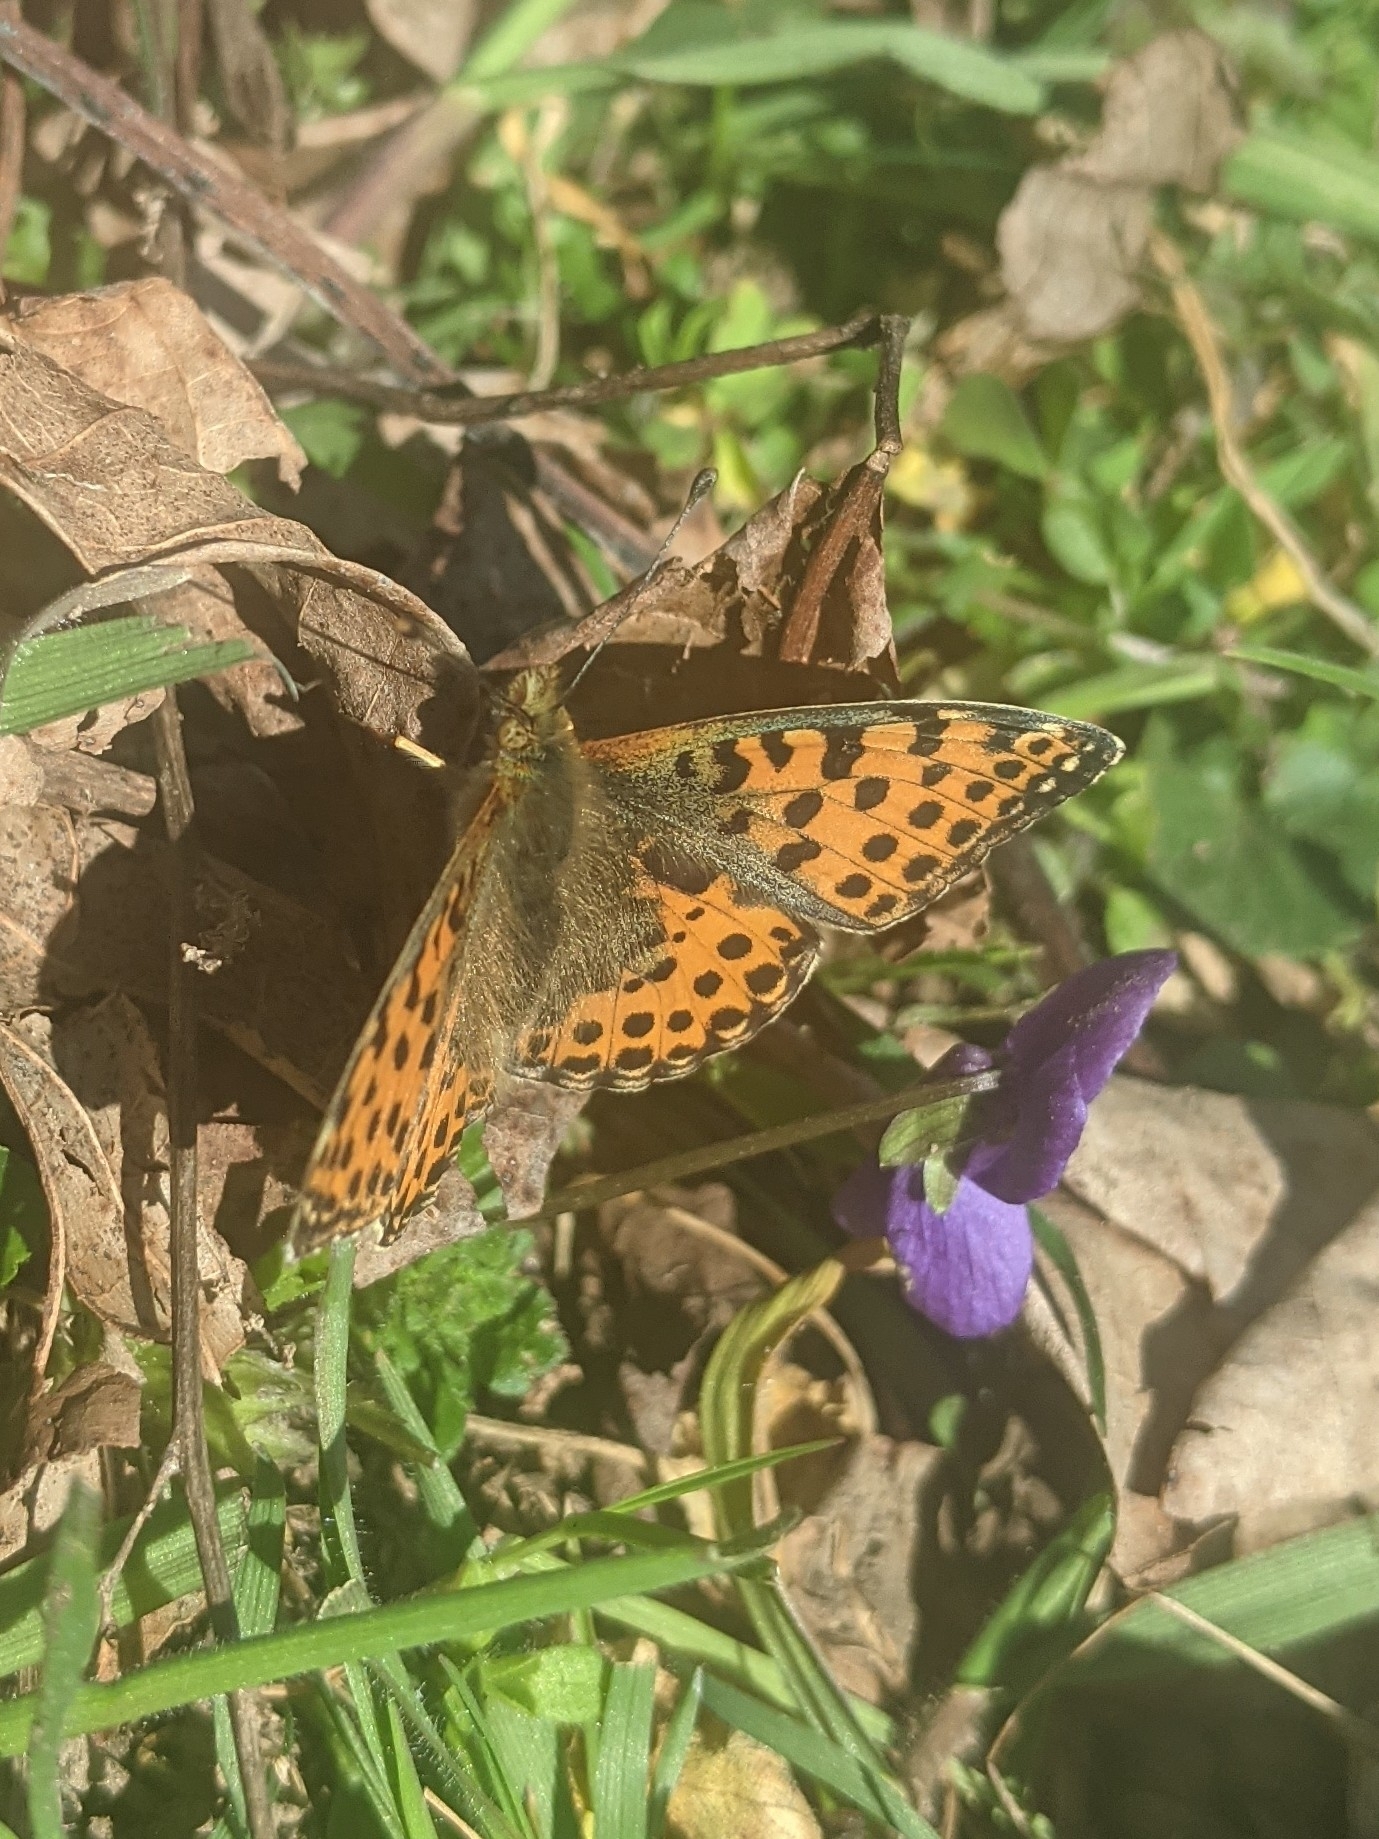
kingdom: Animalia
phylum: Arthropoda
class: Insecta
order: Lepidoptera
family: Nymphalidae
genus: Issoria
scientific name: Issoria lathonia
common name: Queen of spain fritillary
